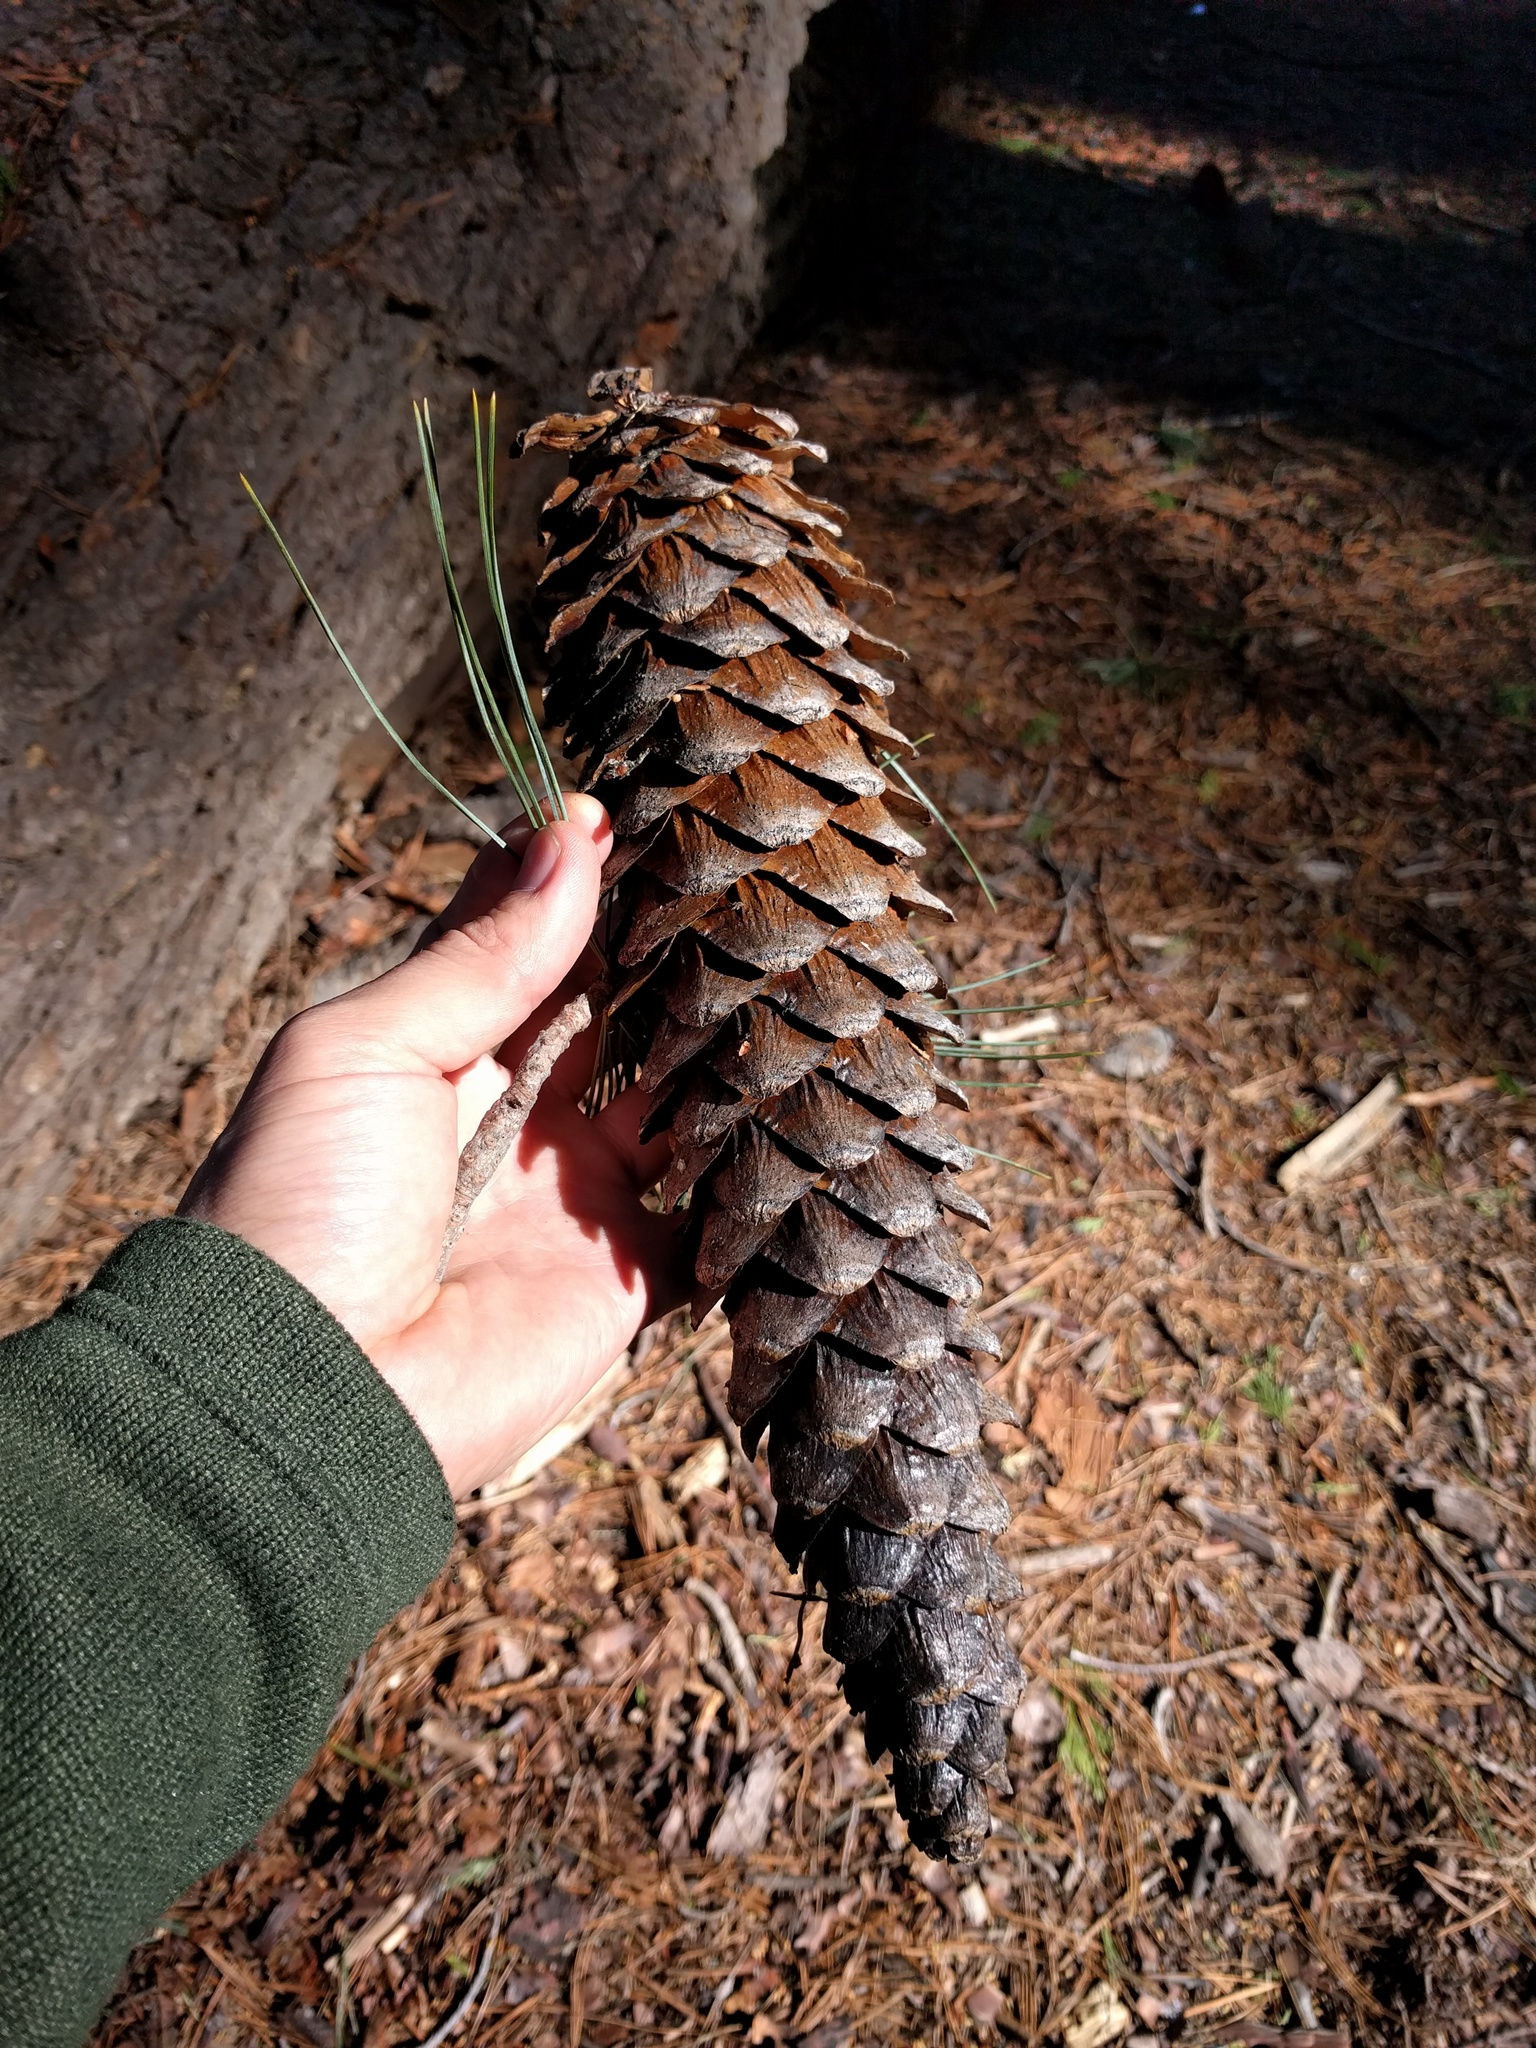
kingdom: Plantae
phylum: Tracheophyta
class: Pinopsida
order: Pinales
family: Pinaceae
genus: Pinus
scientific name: Pinus lambertiana
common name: Sugar pine
